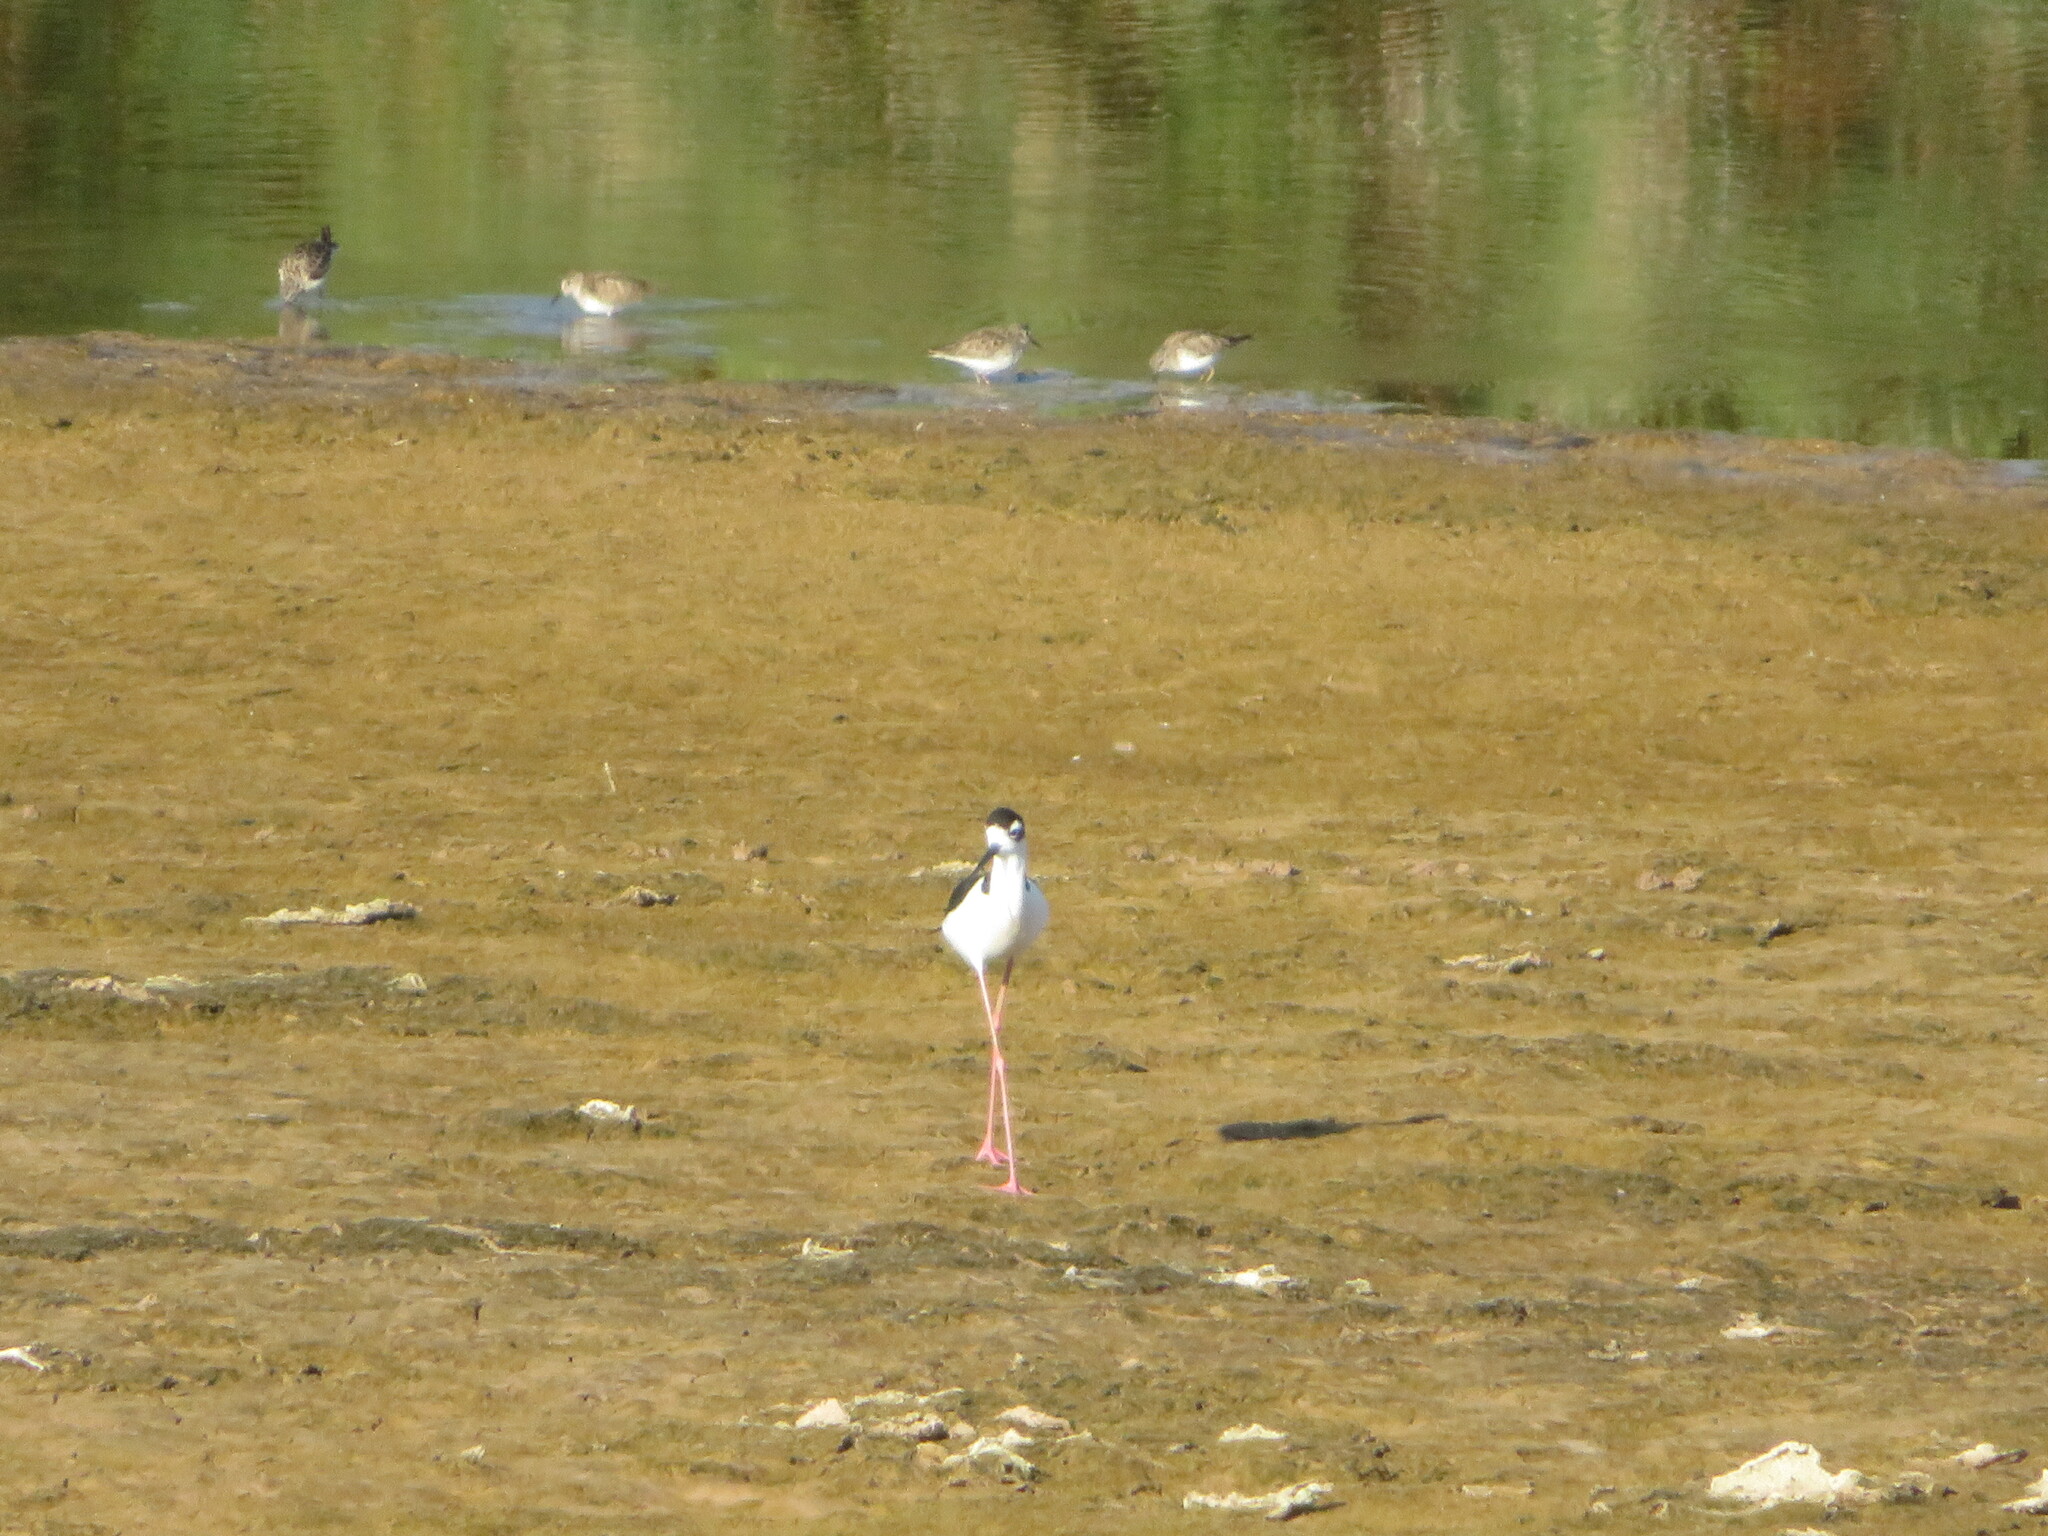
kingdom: Animalia
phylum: Chordata
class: Aves
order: Charadriiformes
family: Recurvirostridae
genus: Himantopus
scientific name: Himantopus mexicanus
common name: Black-necked stilt
